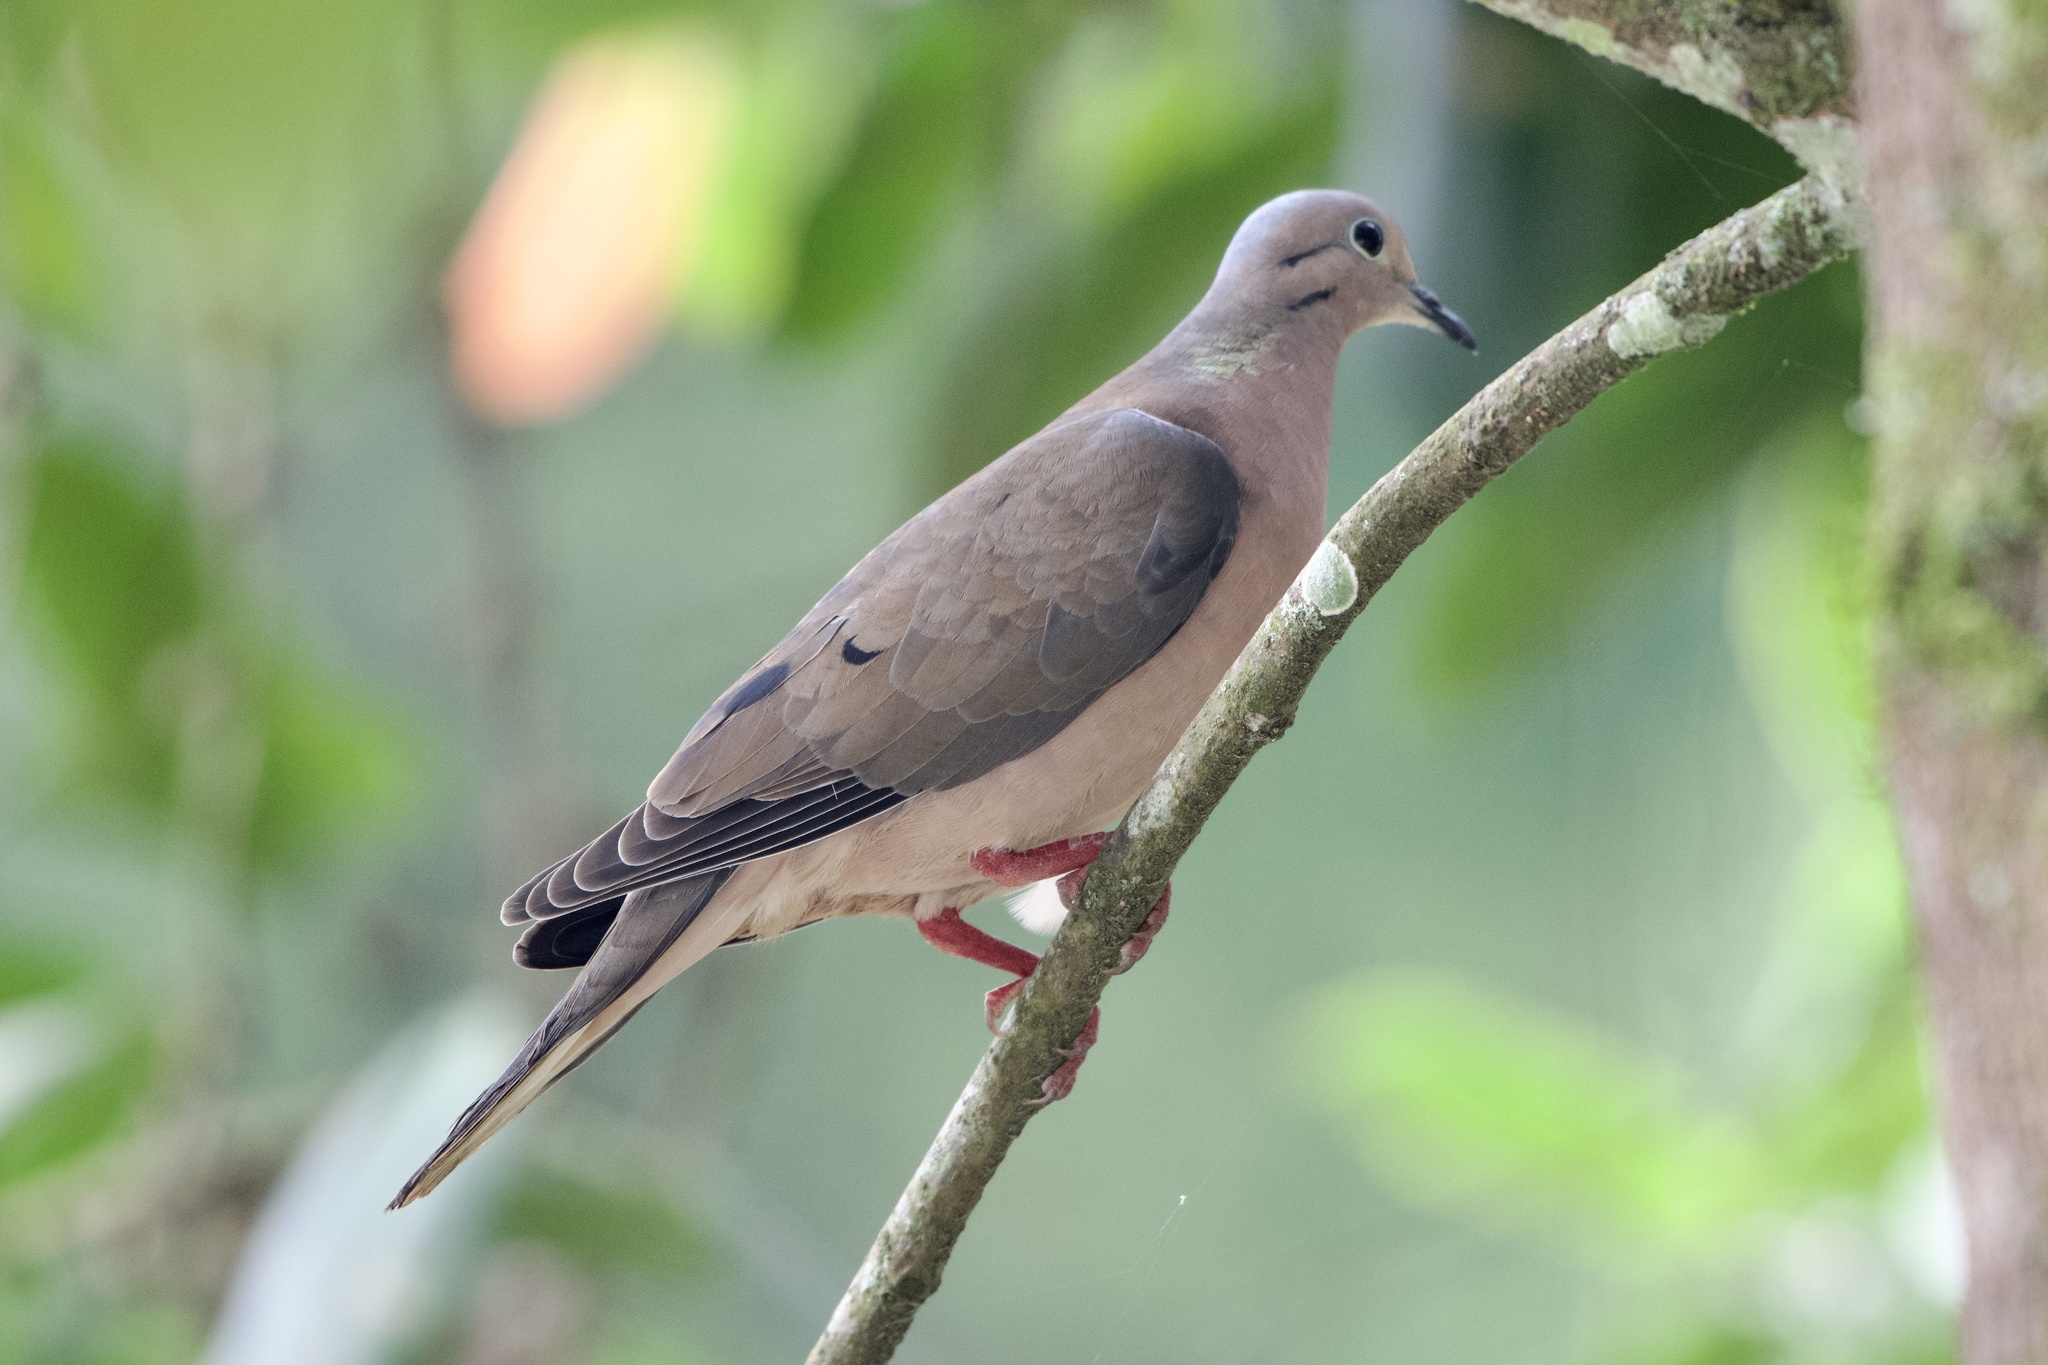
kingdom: Animalia
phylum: Chordata
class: Aves
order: Columbiformes
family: Columbidae
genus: Zenaida
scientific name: Zenaida auriculata
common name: Eared dove
